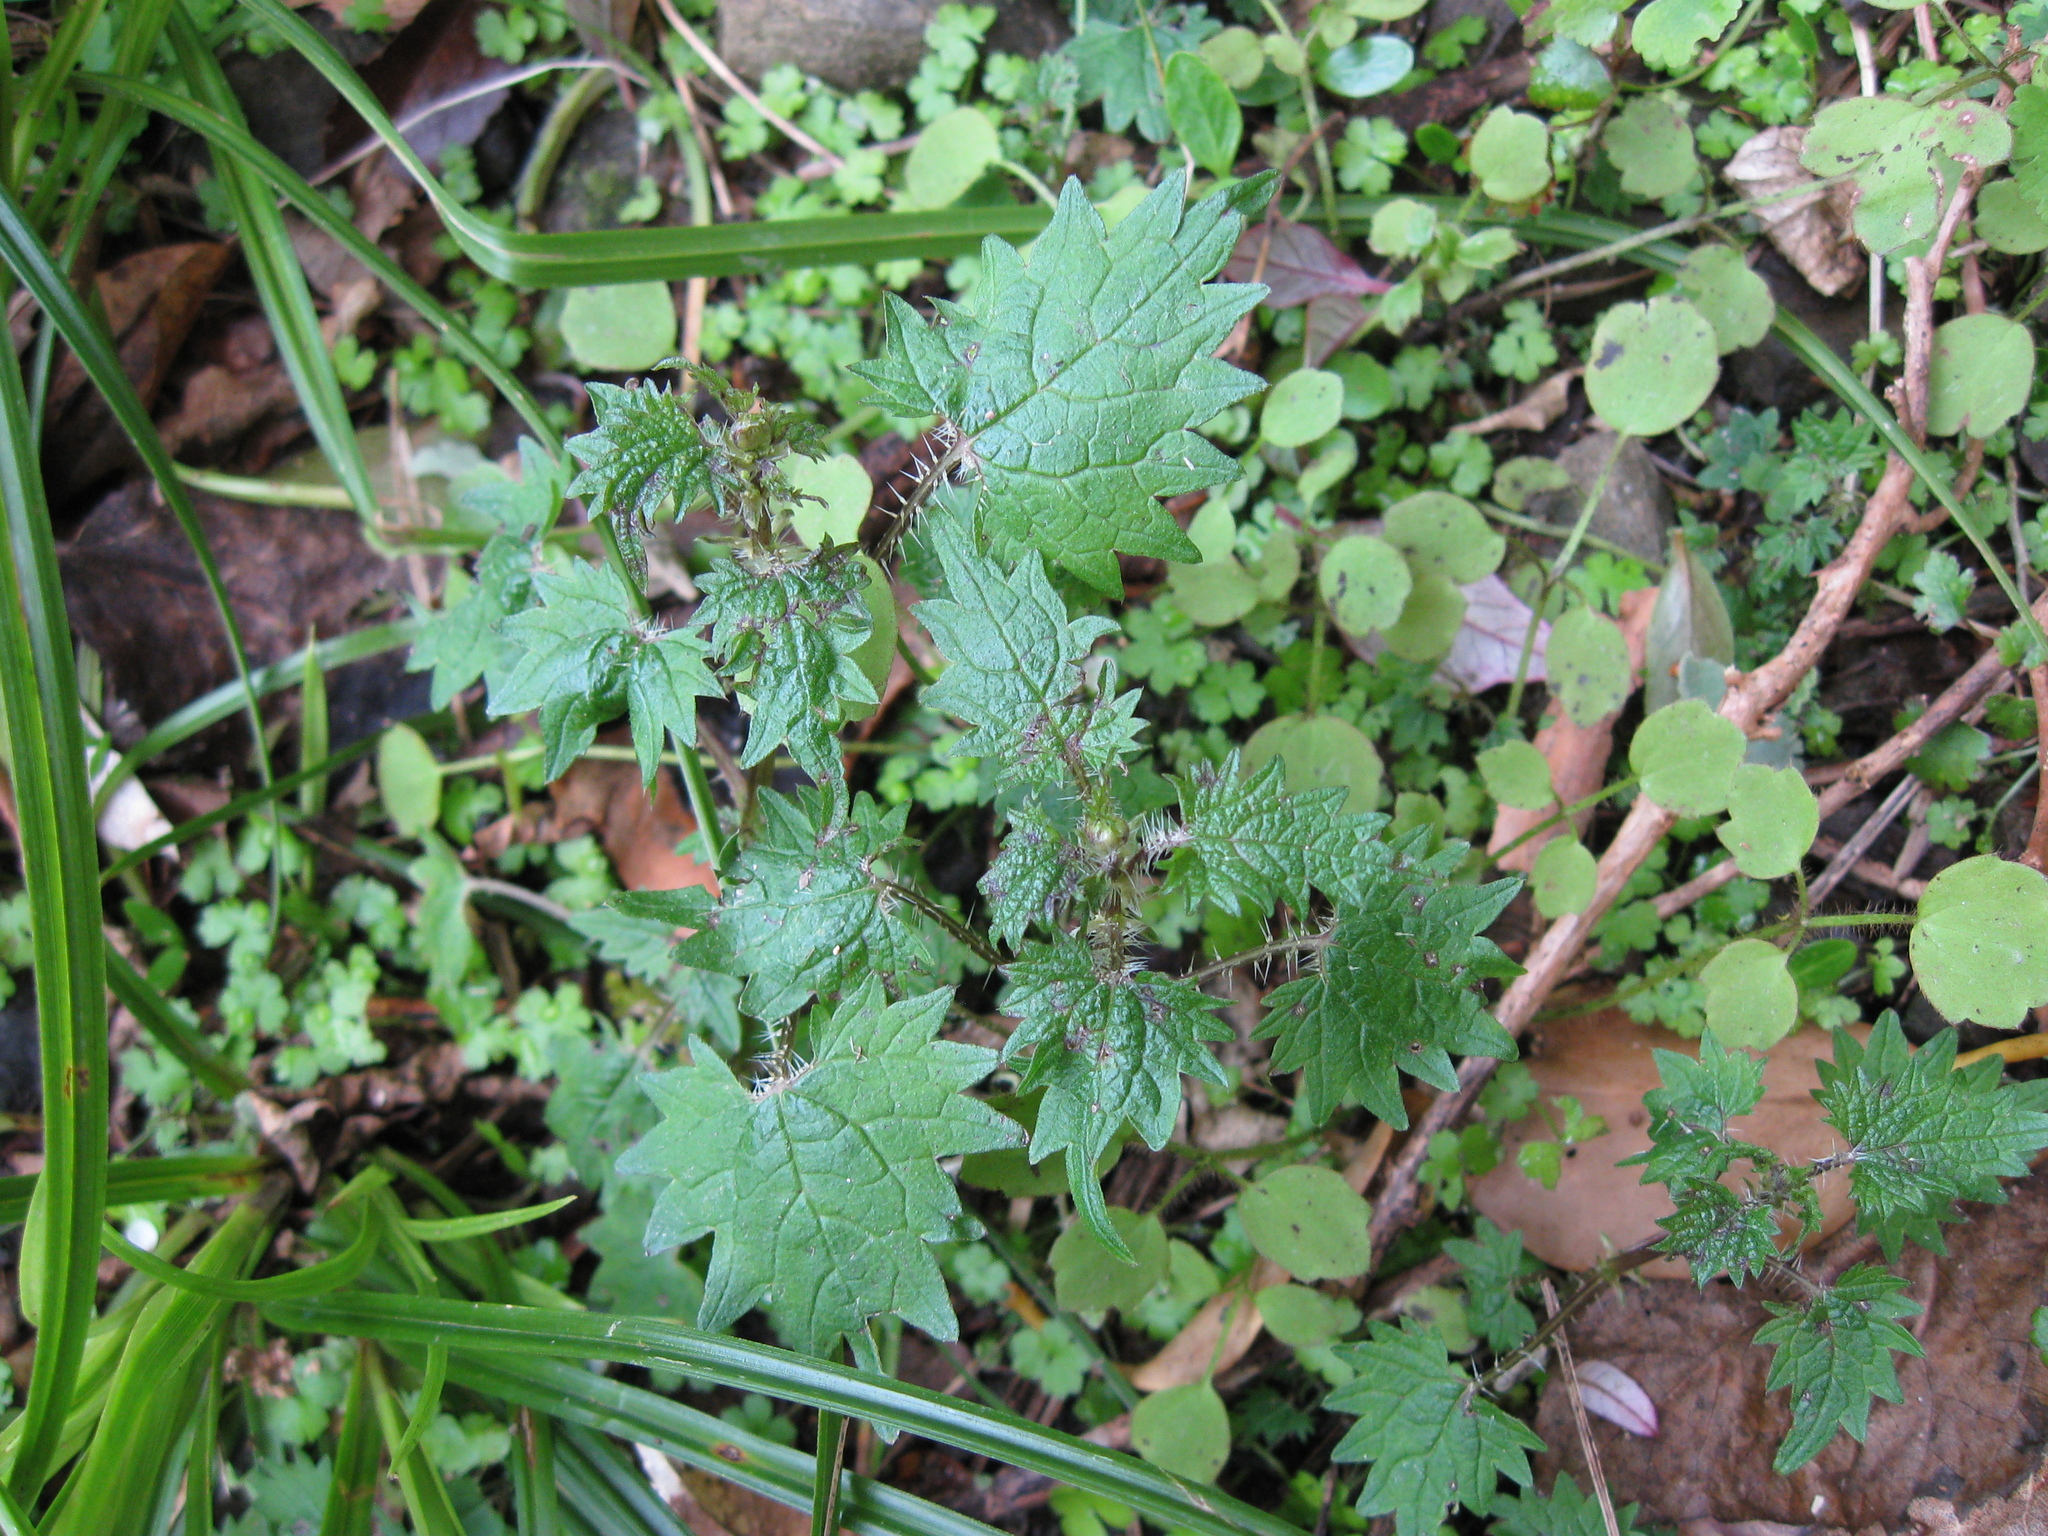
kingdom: Plantae
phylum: Tracheophyta
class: Magnoliopsida
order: Rosales
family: Urticaceae
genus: Urtica
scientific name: Urtica sykesii
